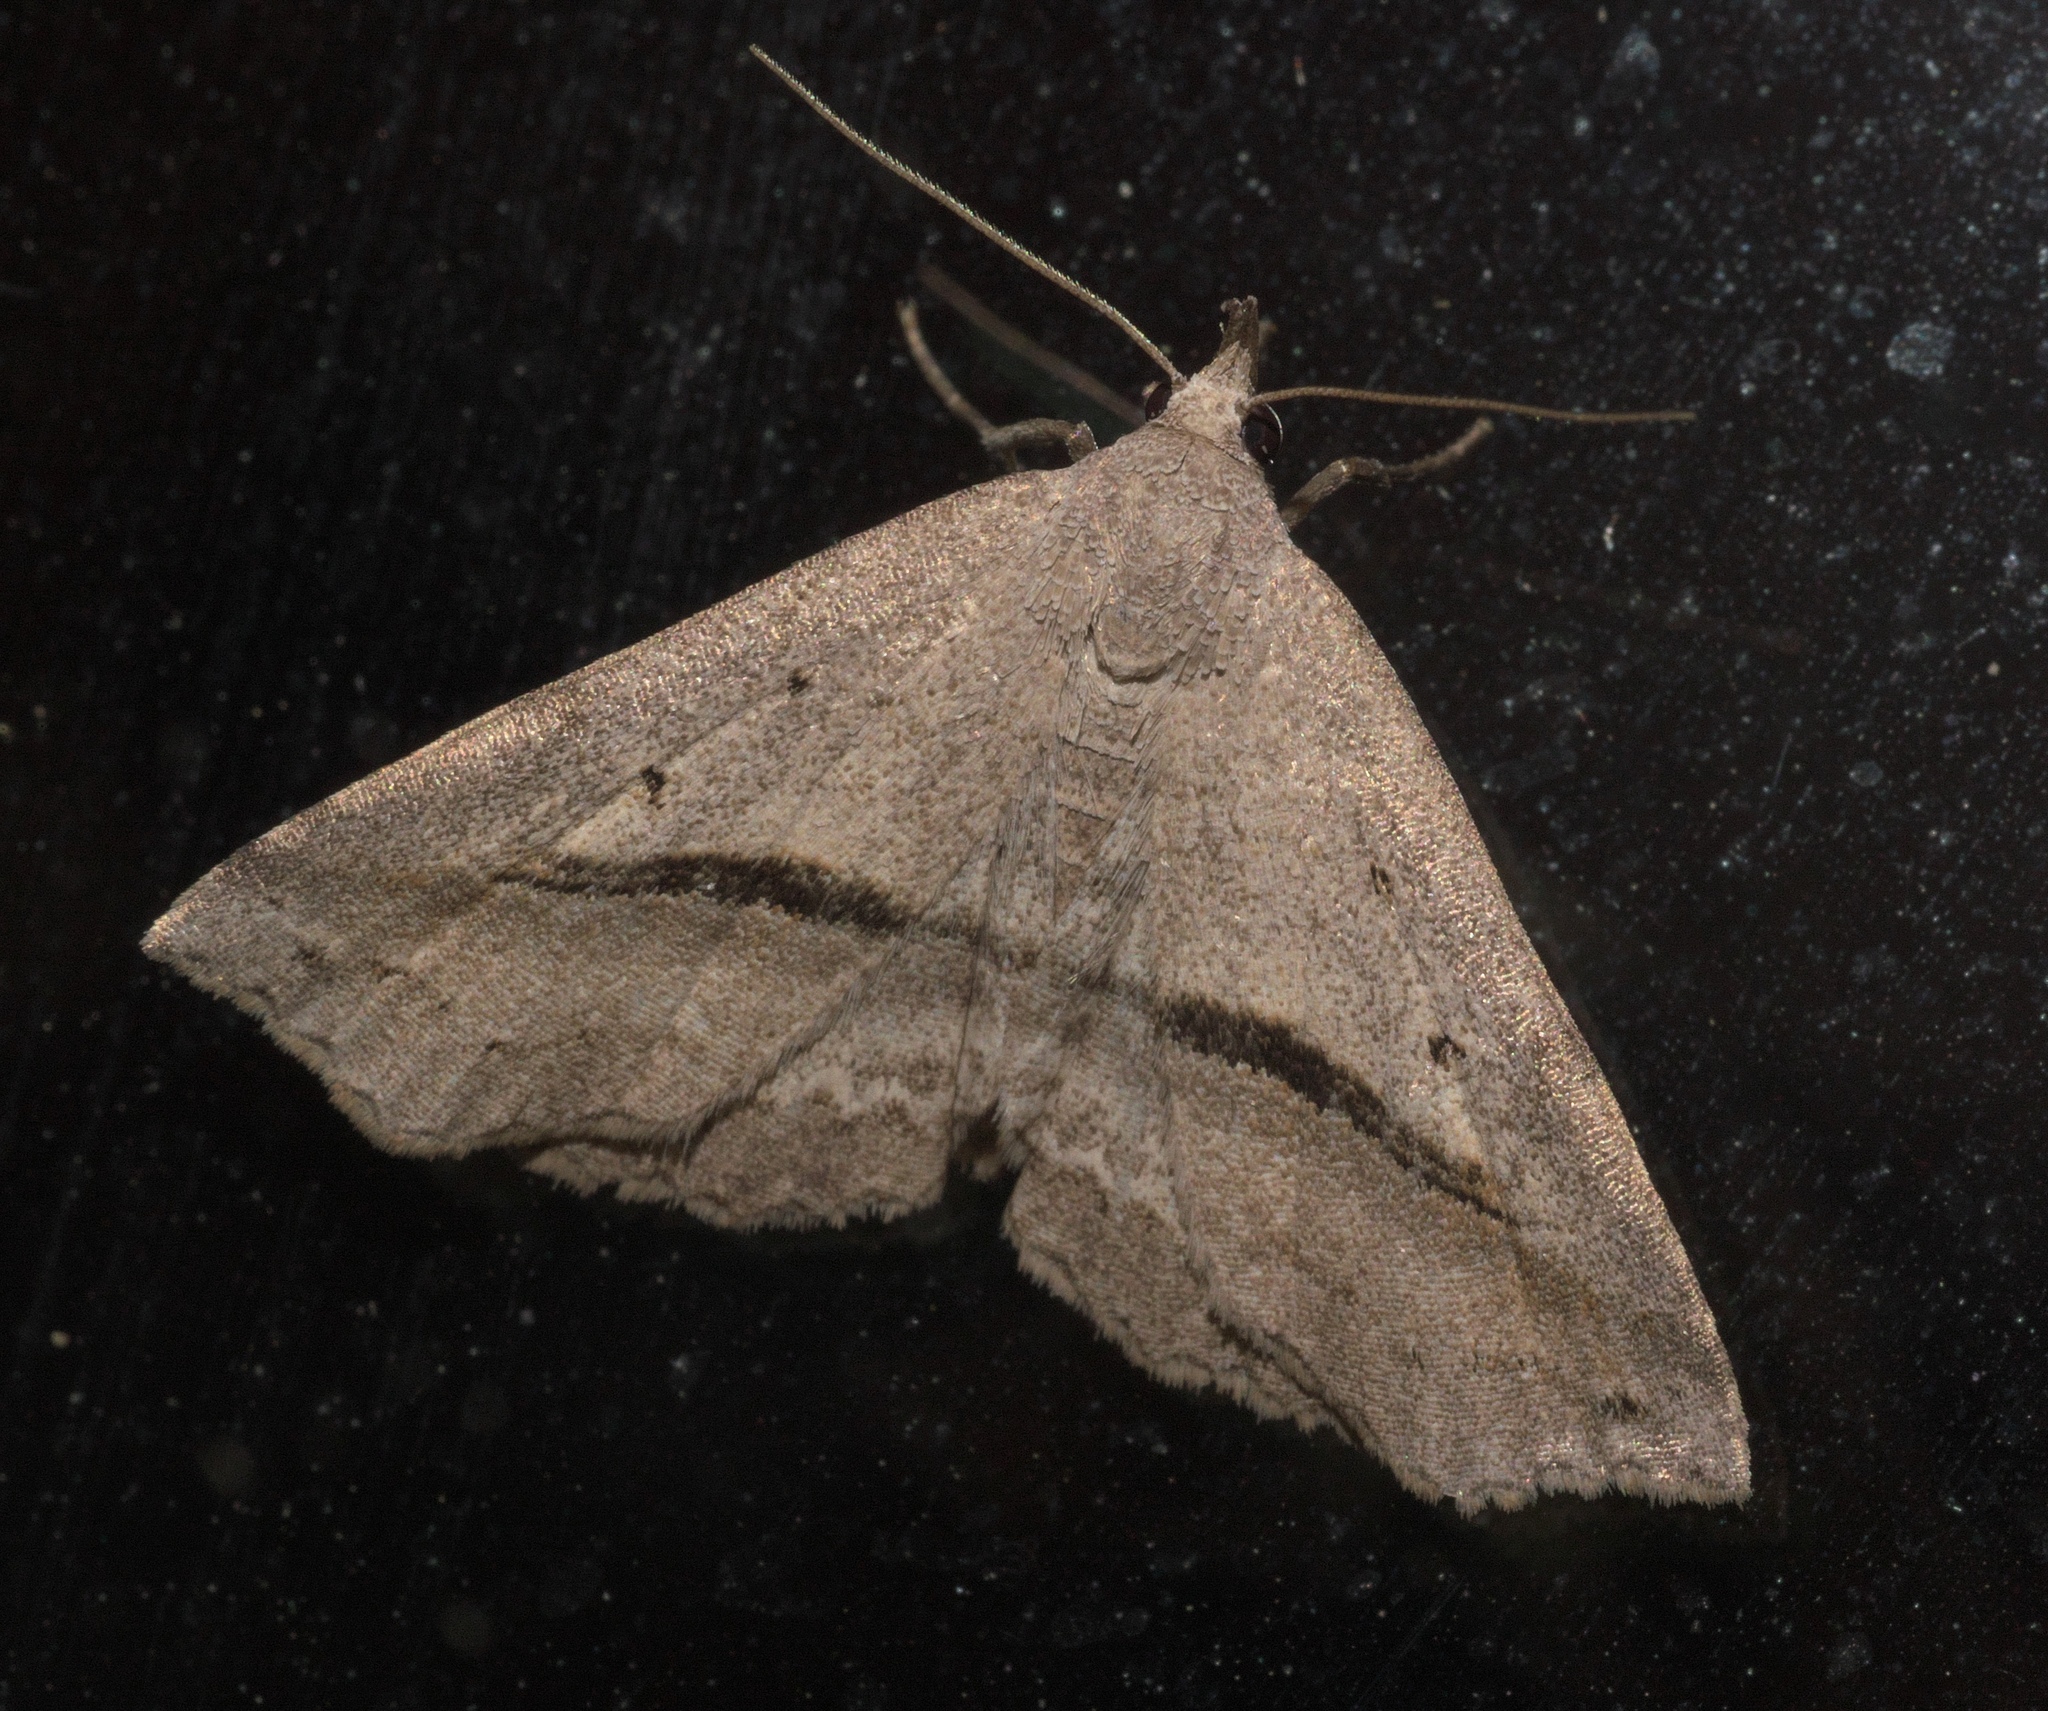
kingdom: Animalia
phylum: Arthropoda
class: Insecta
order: Lepidoptera
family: Erebidae
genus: Spargaloma
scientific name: Spargaloma perditalis
